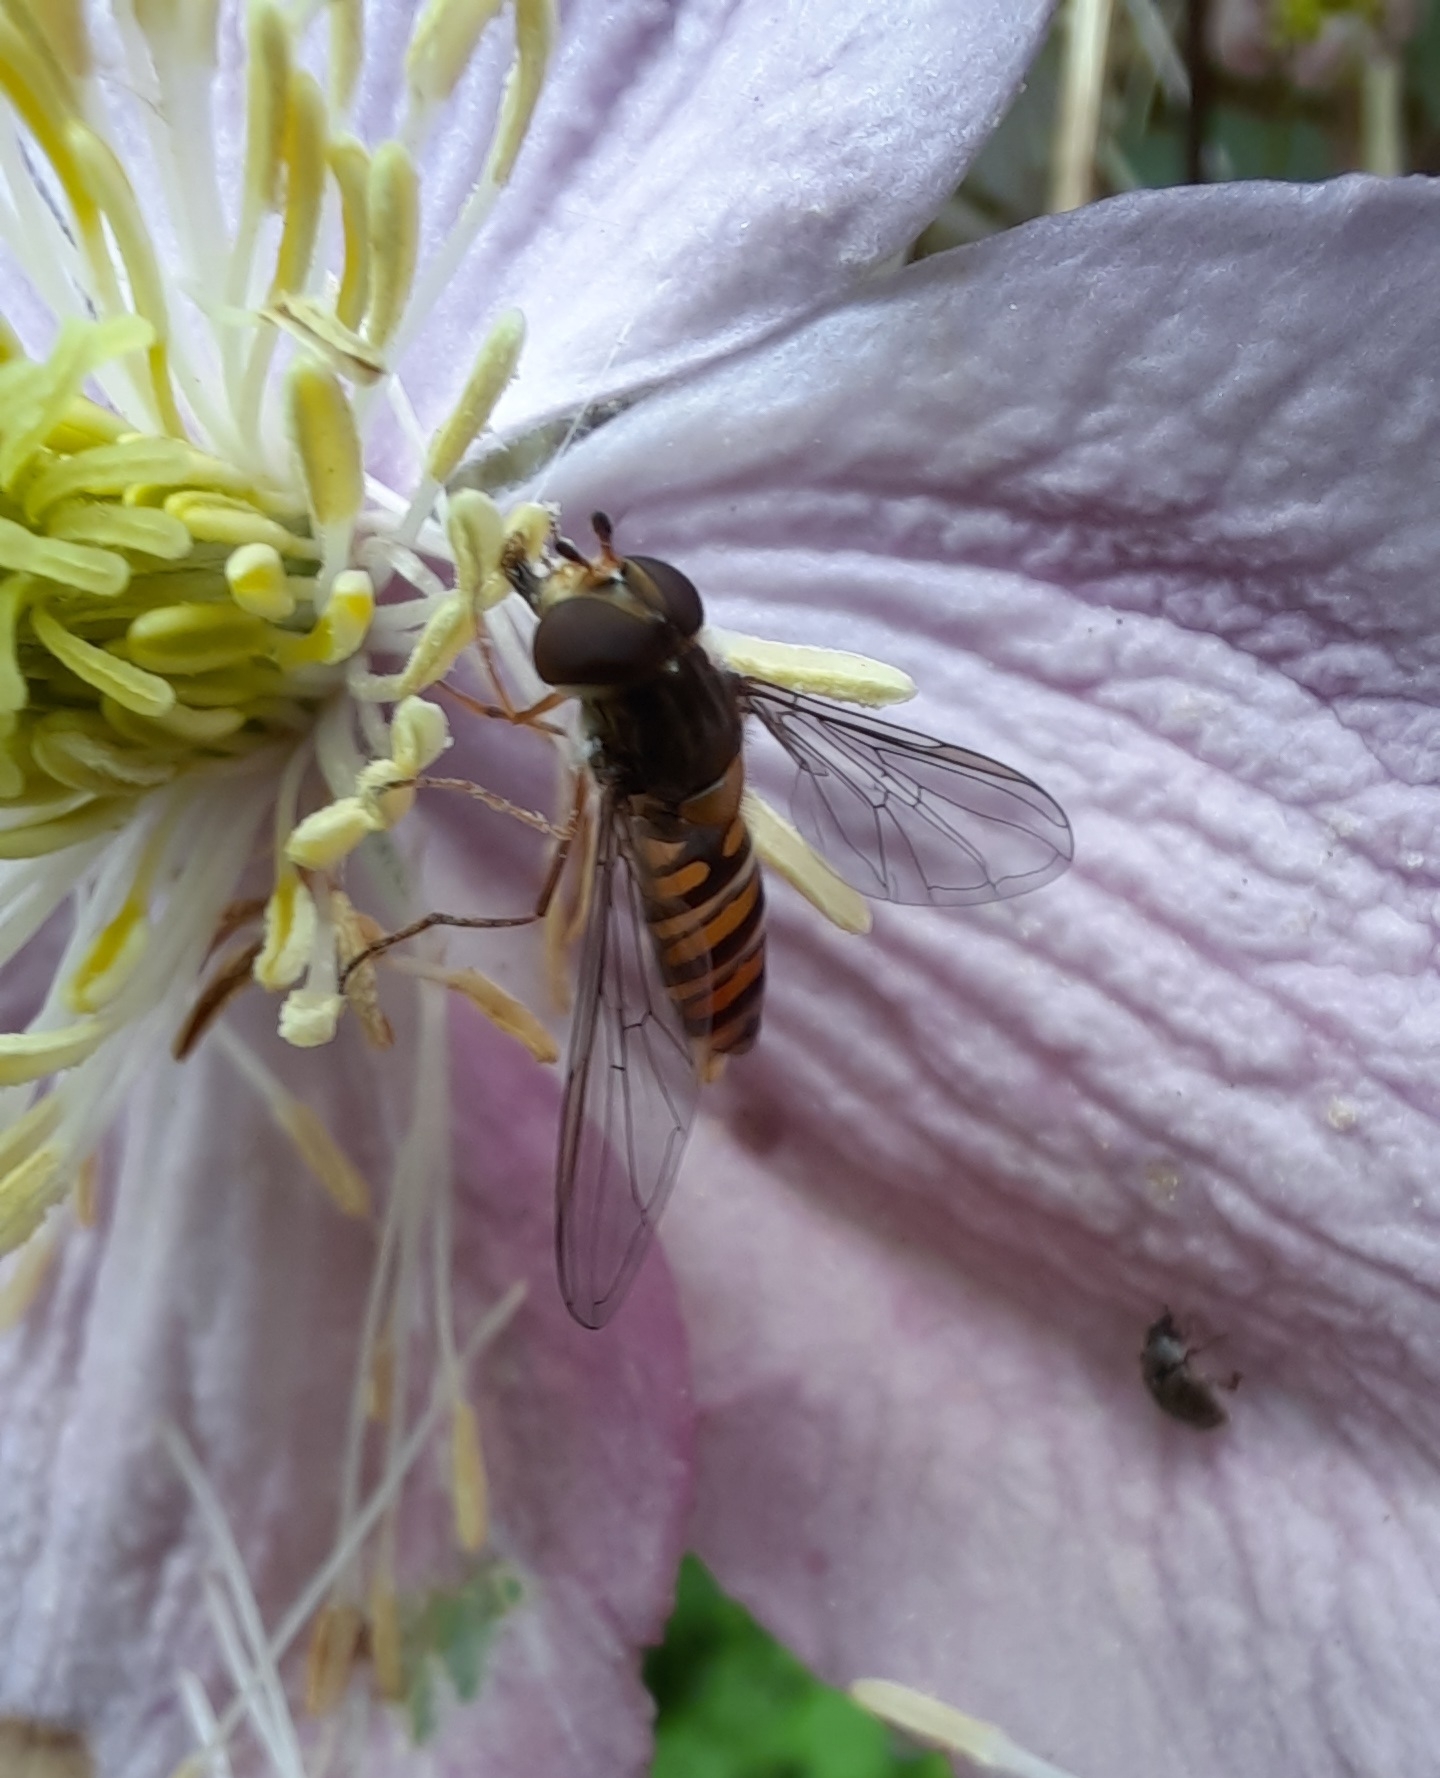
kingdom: Animalia
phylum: Arthropoda
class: Insecta
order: Diptera
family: Syrphidae
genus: Episyrphus
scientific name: Episyrphus balteatus
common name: Marmalade hoverfly
